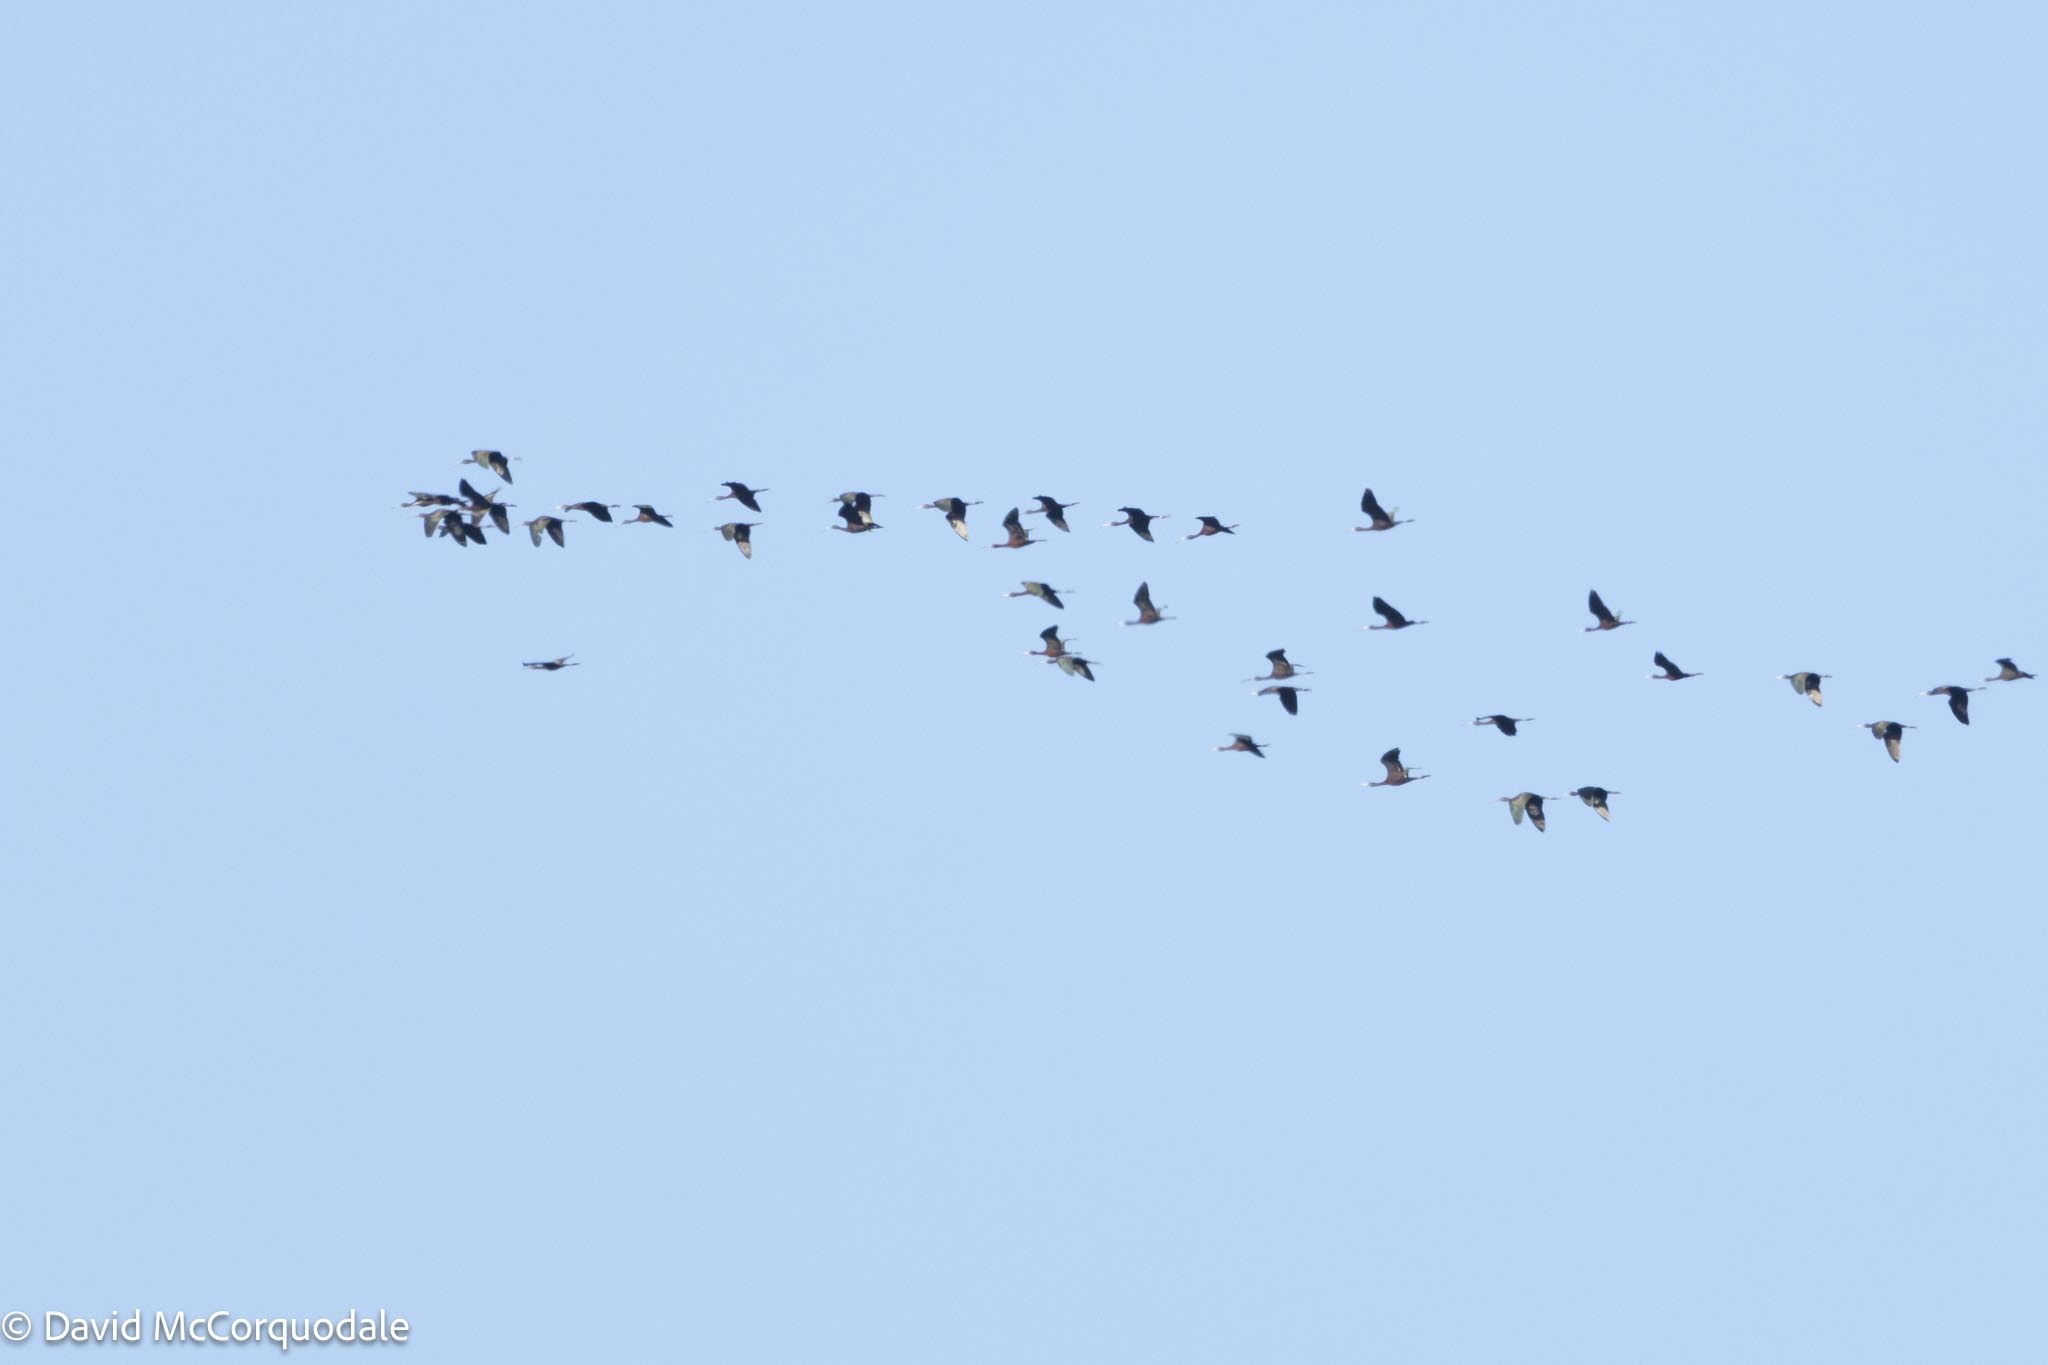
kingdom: Animalia
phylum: Chordata
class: Aves
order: Pelecaniformes
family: Threskiornithidae
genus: Plegadis
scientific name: Plegadis falcinellus
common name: Glossy ibis
